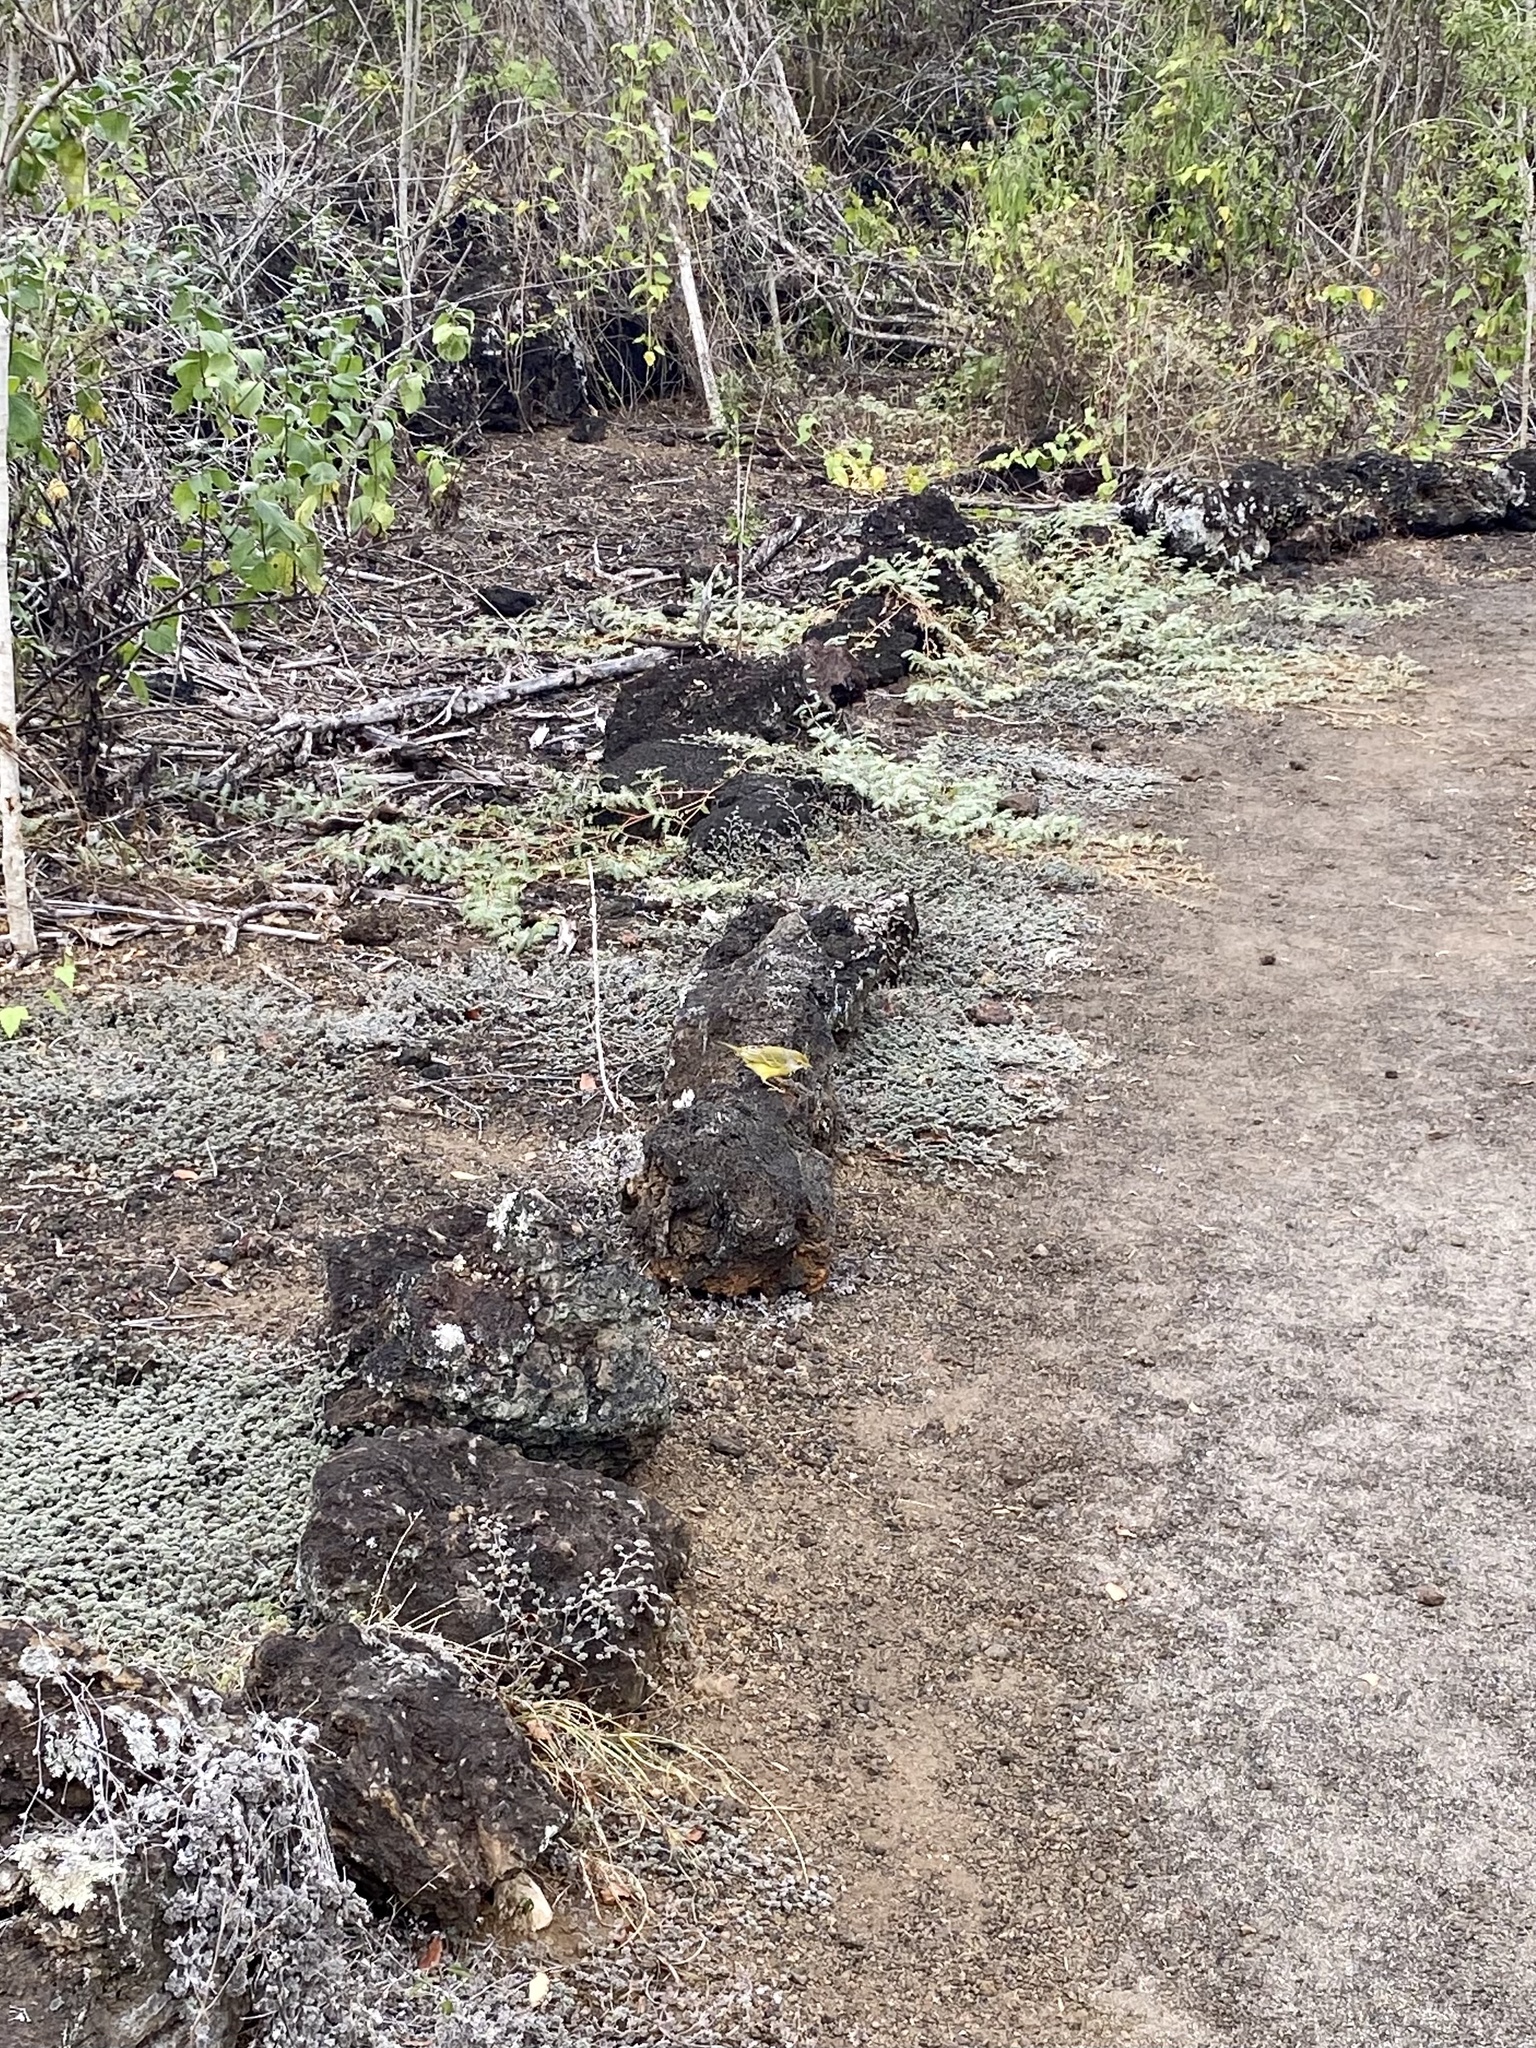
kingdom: Animalia
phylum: Chordata
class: Aves
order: Passeriformes
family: Parulidae
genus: Setophaga
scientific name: Setophaga petechia
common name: Yellow warbler
